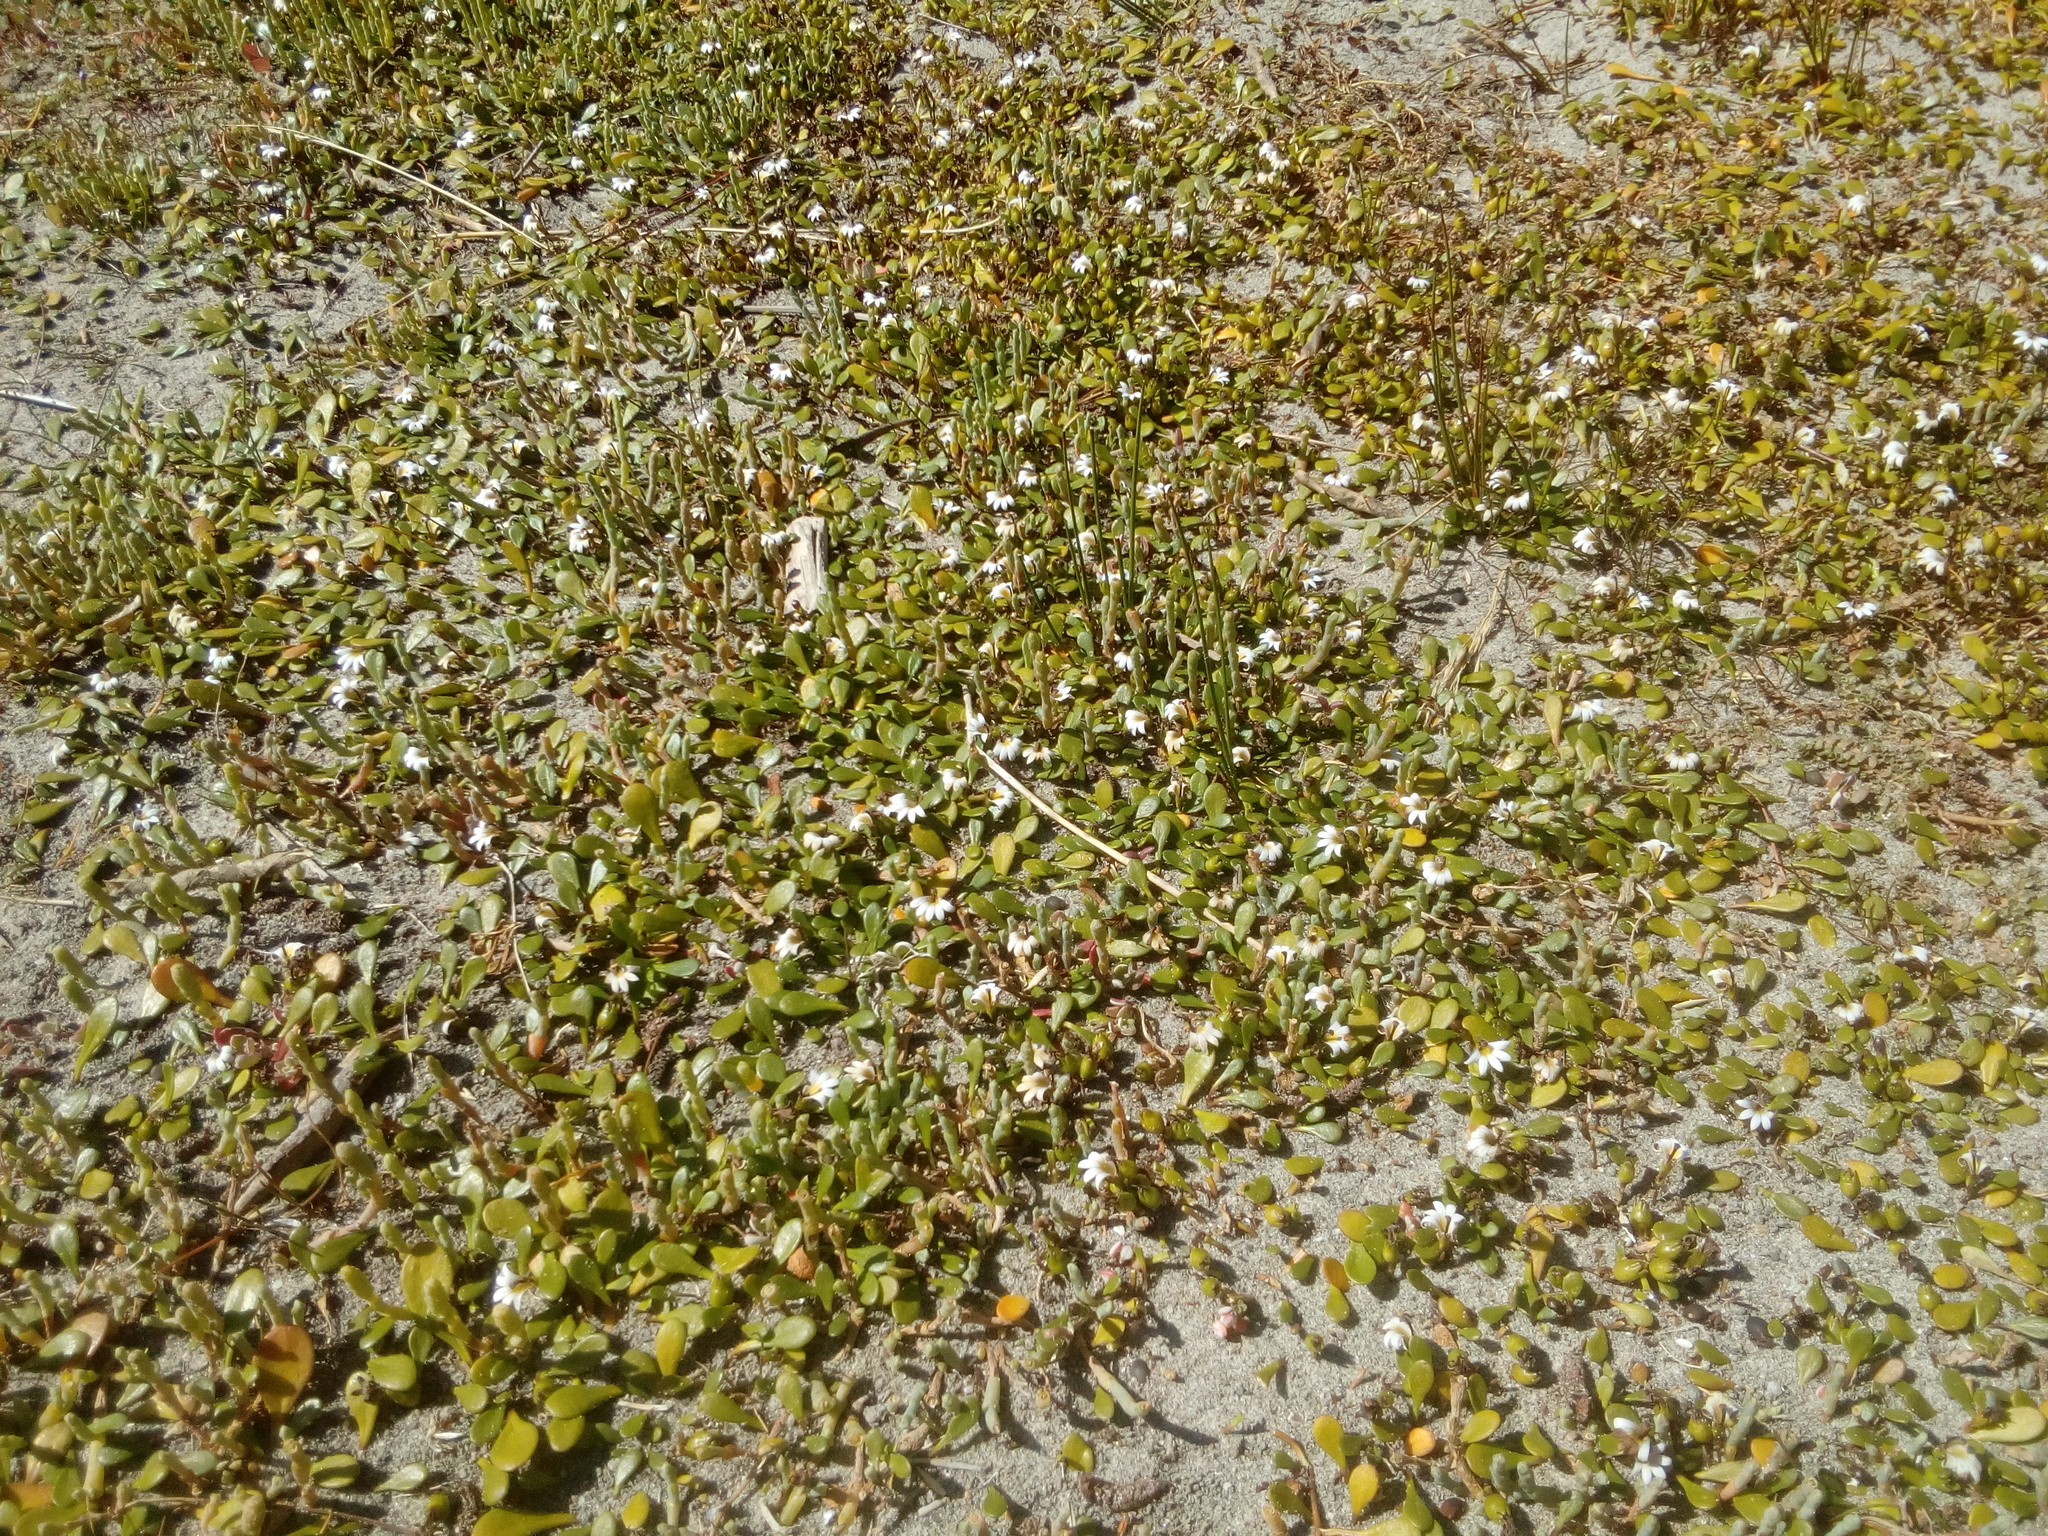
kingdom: Plantae
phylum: Tracheophyta
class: Magnoliopsida
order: Asterales
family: Goodeniaceae
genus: Goodenia
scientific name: Goodenia radicans
